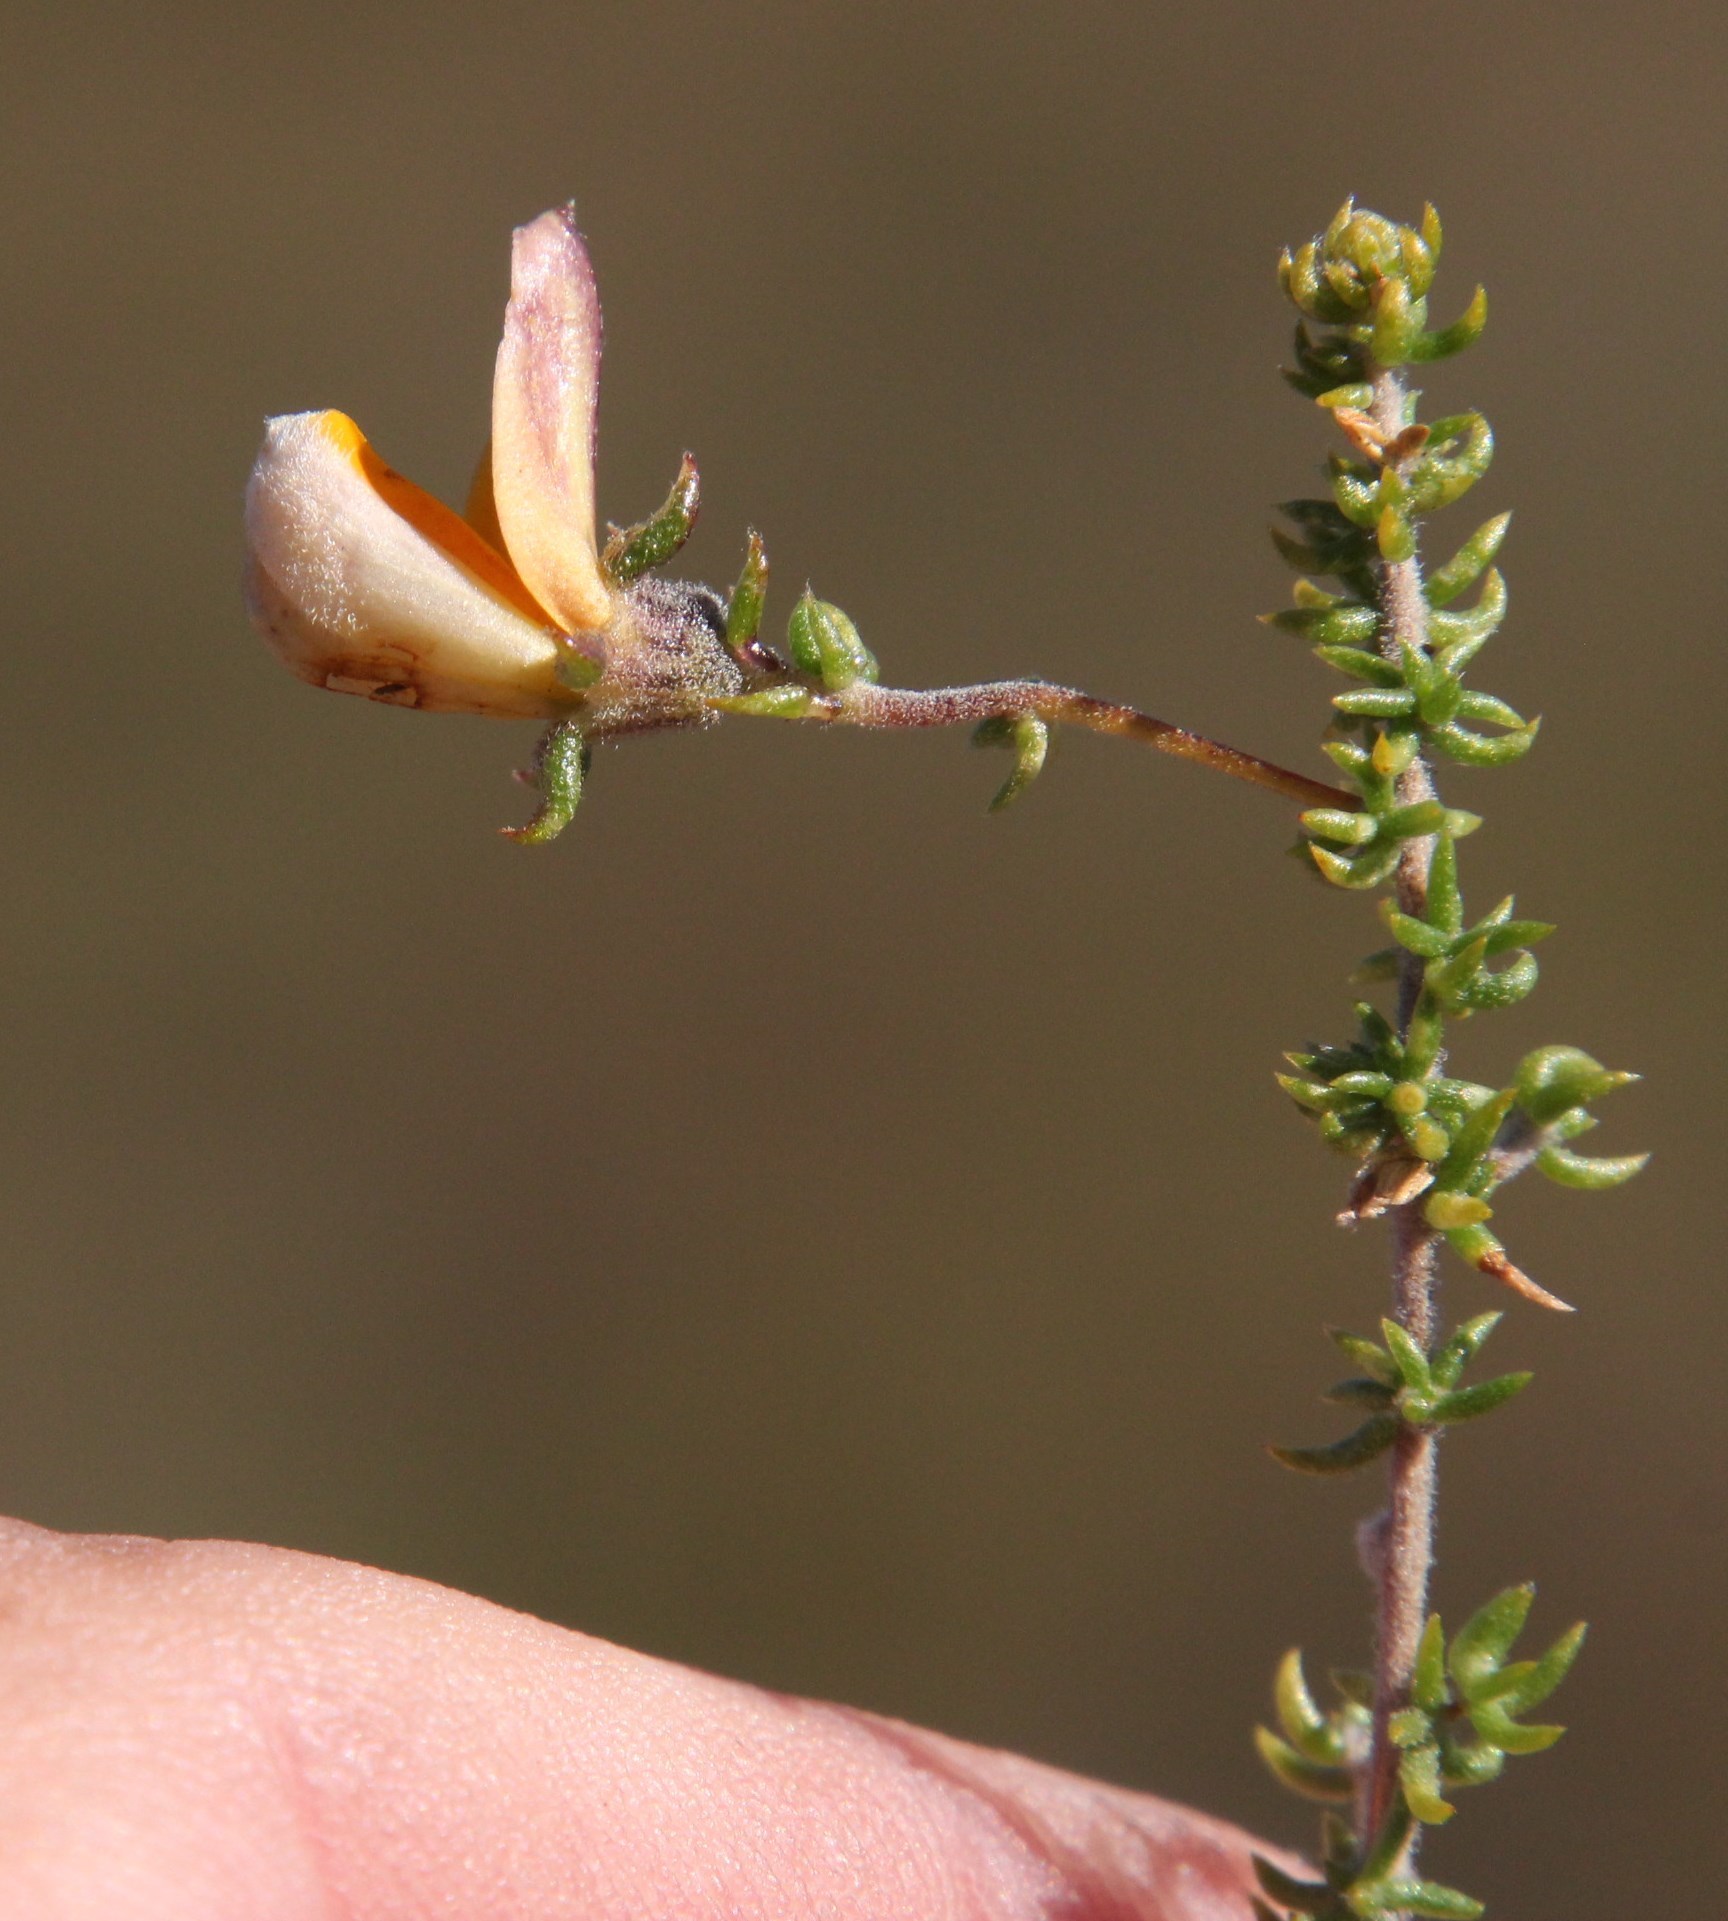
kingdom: Plantae
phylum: Tracheophyta
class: Magnoliopsida
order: Fabales
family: Fabaceae
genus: Aspalathus
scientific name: Aspalathus retroflexa
